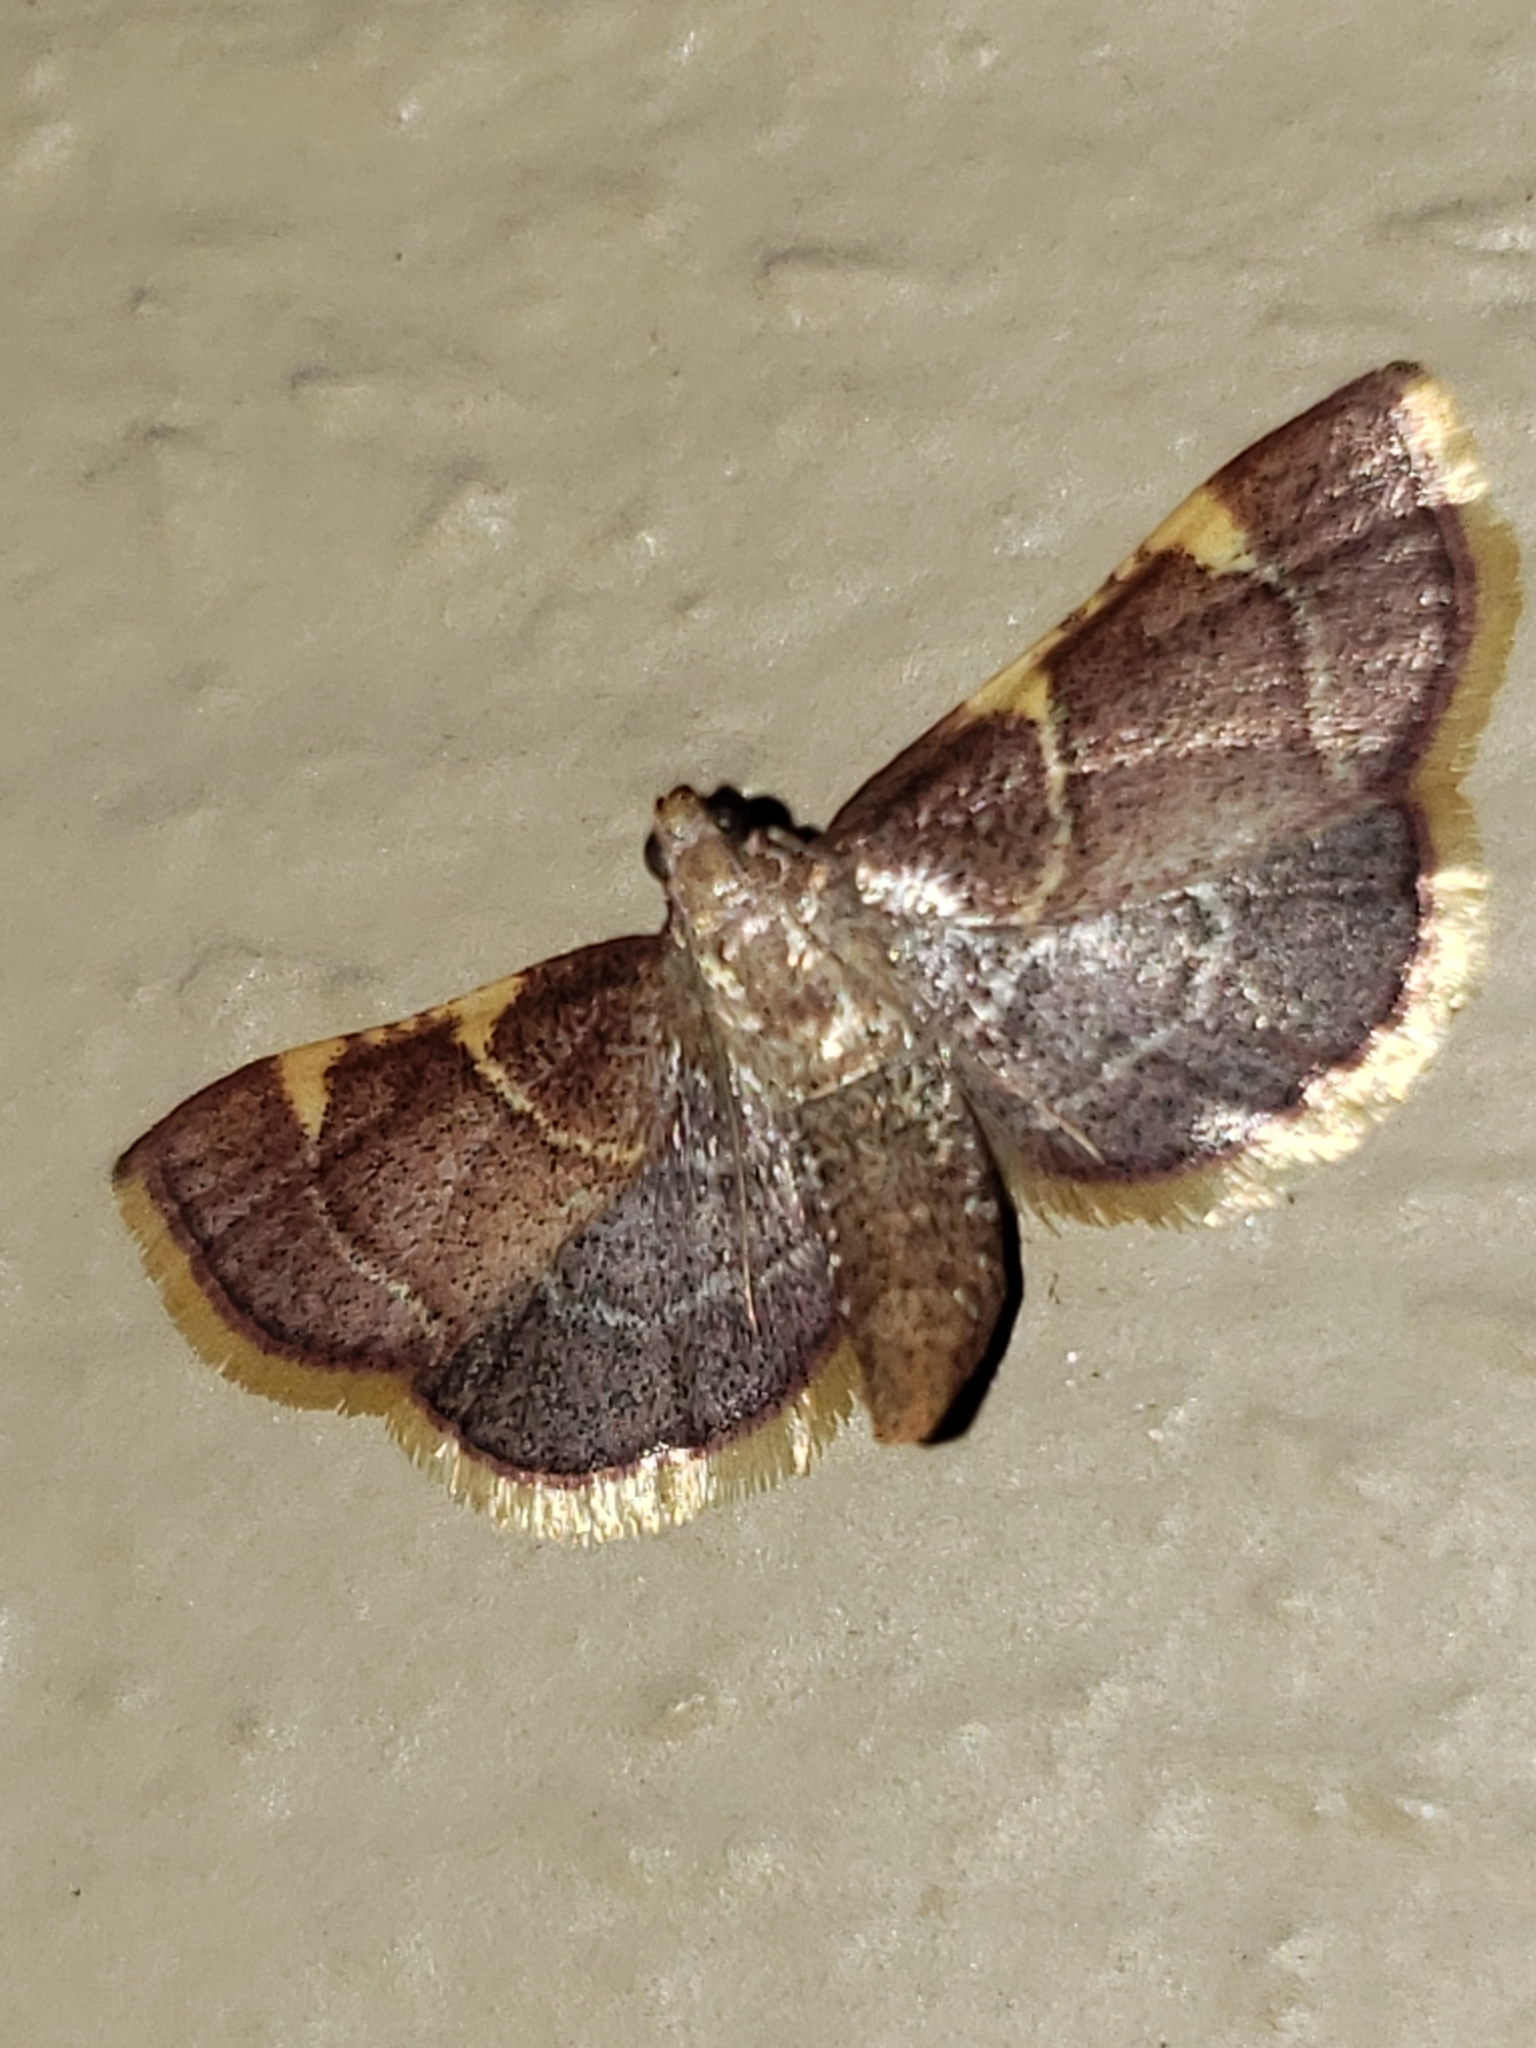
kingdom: Animalia
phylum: Arthropoda
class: Insecta
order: Lepidoptera
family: Pyralidae
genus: Hypsopygia
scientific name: Hypsopygia olinalis
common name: Yellow-fringed dolichomia moth
